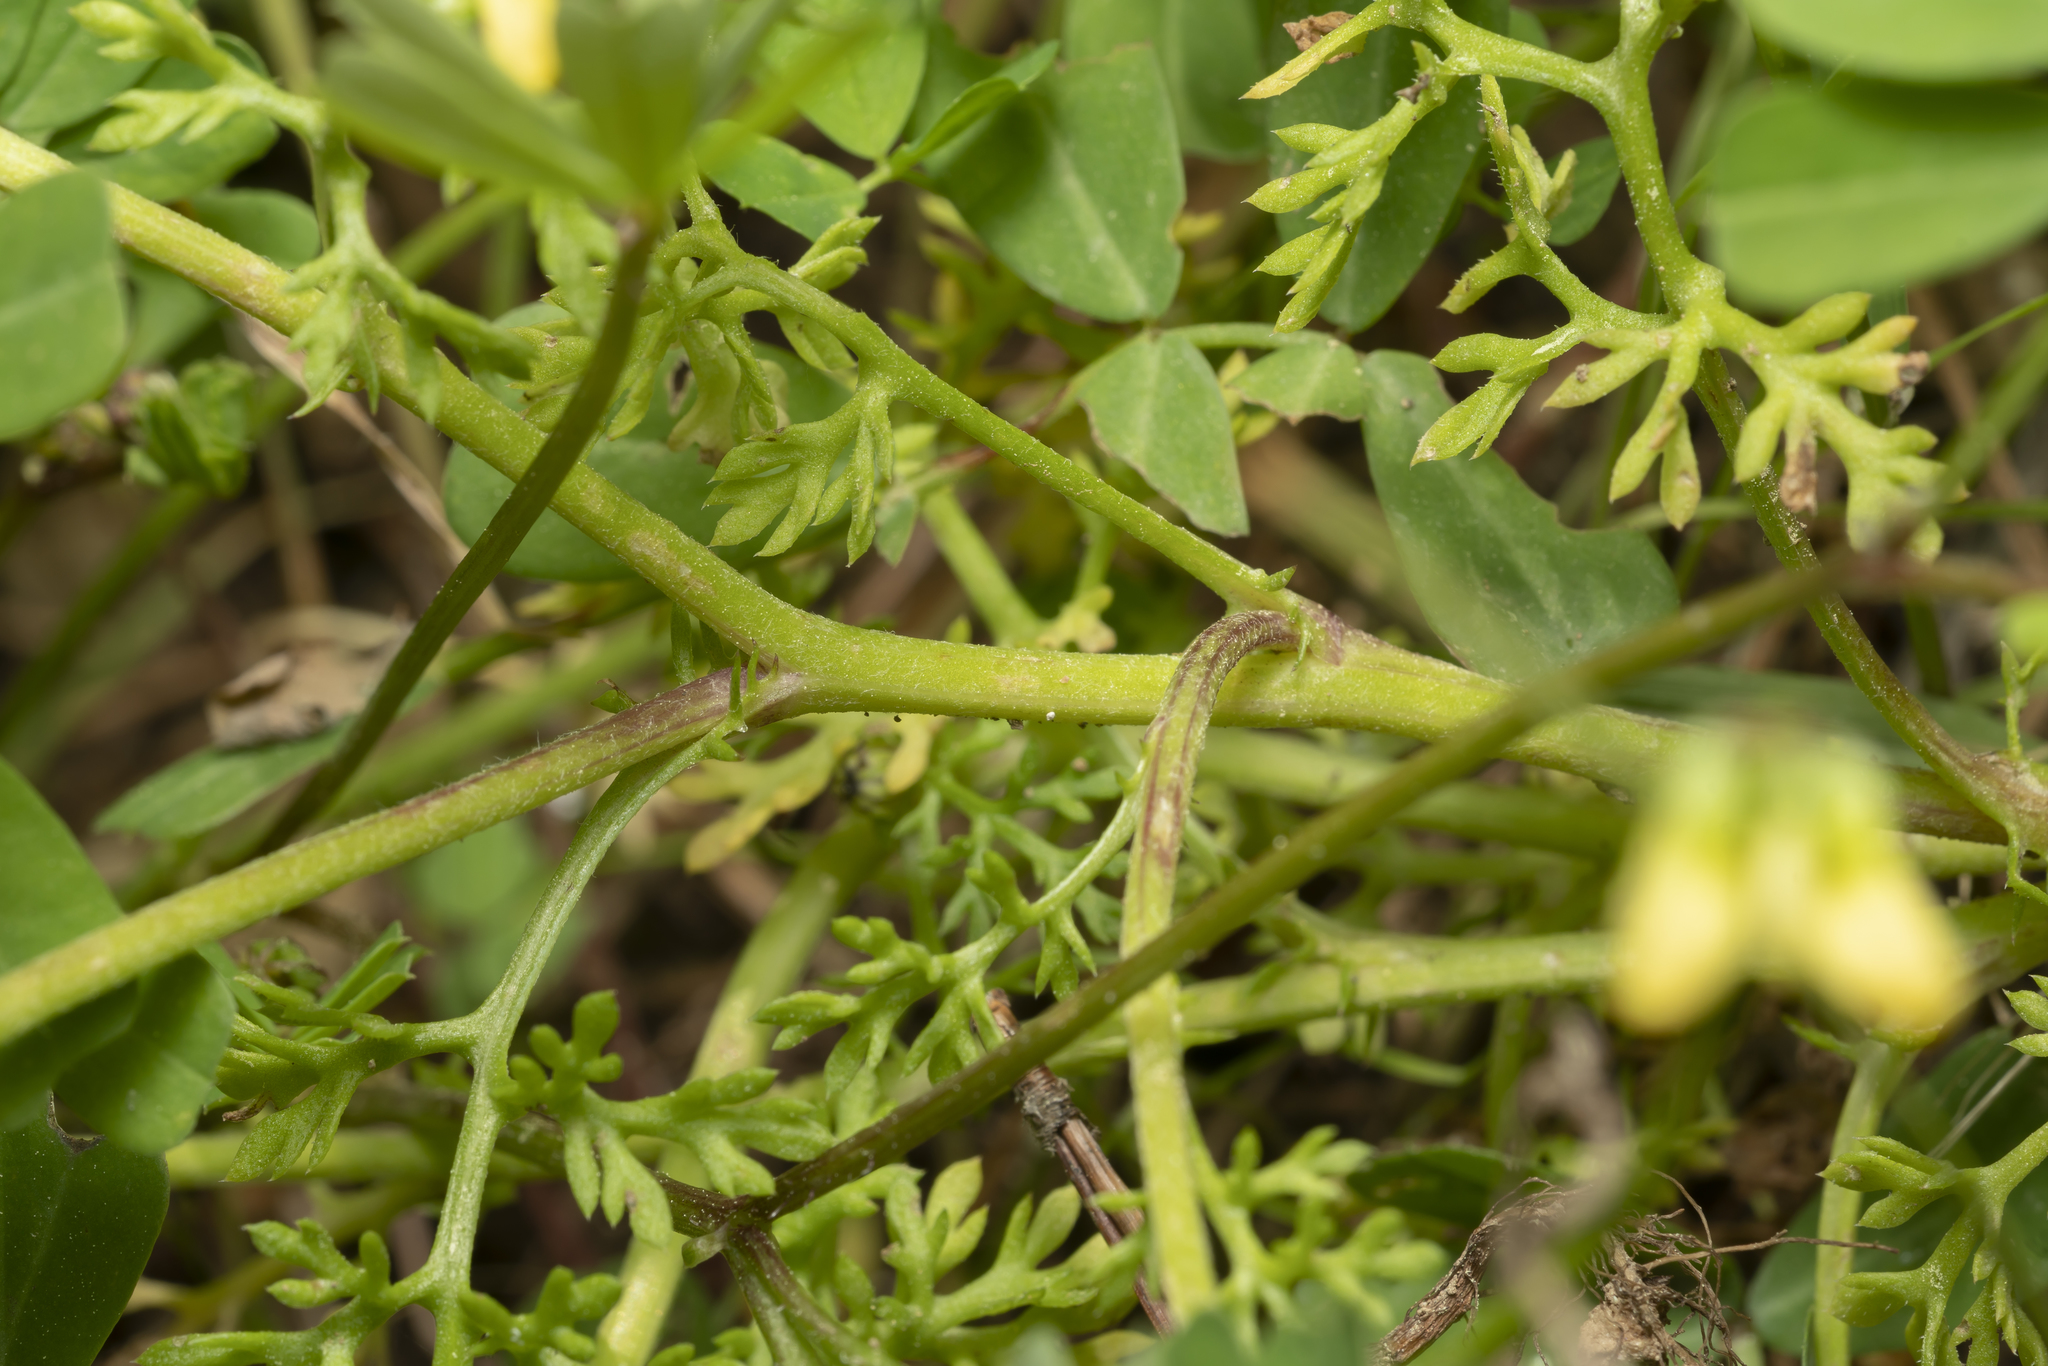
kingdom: Plantae
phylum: Tracheophyta
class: Magnoliopsida
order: Asterales
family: Asteraceae
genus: Anthemis
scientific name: Anthemis chia
